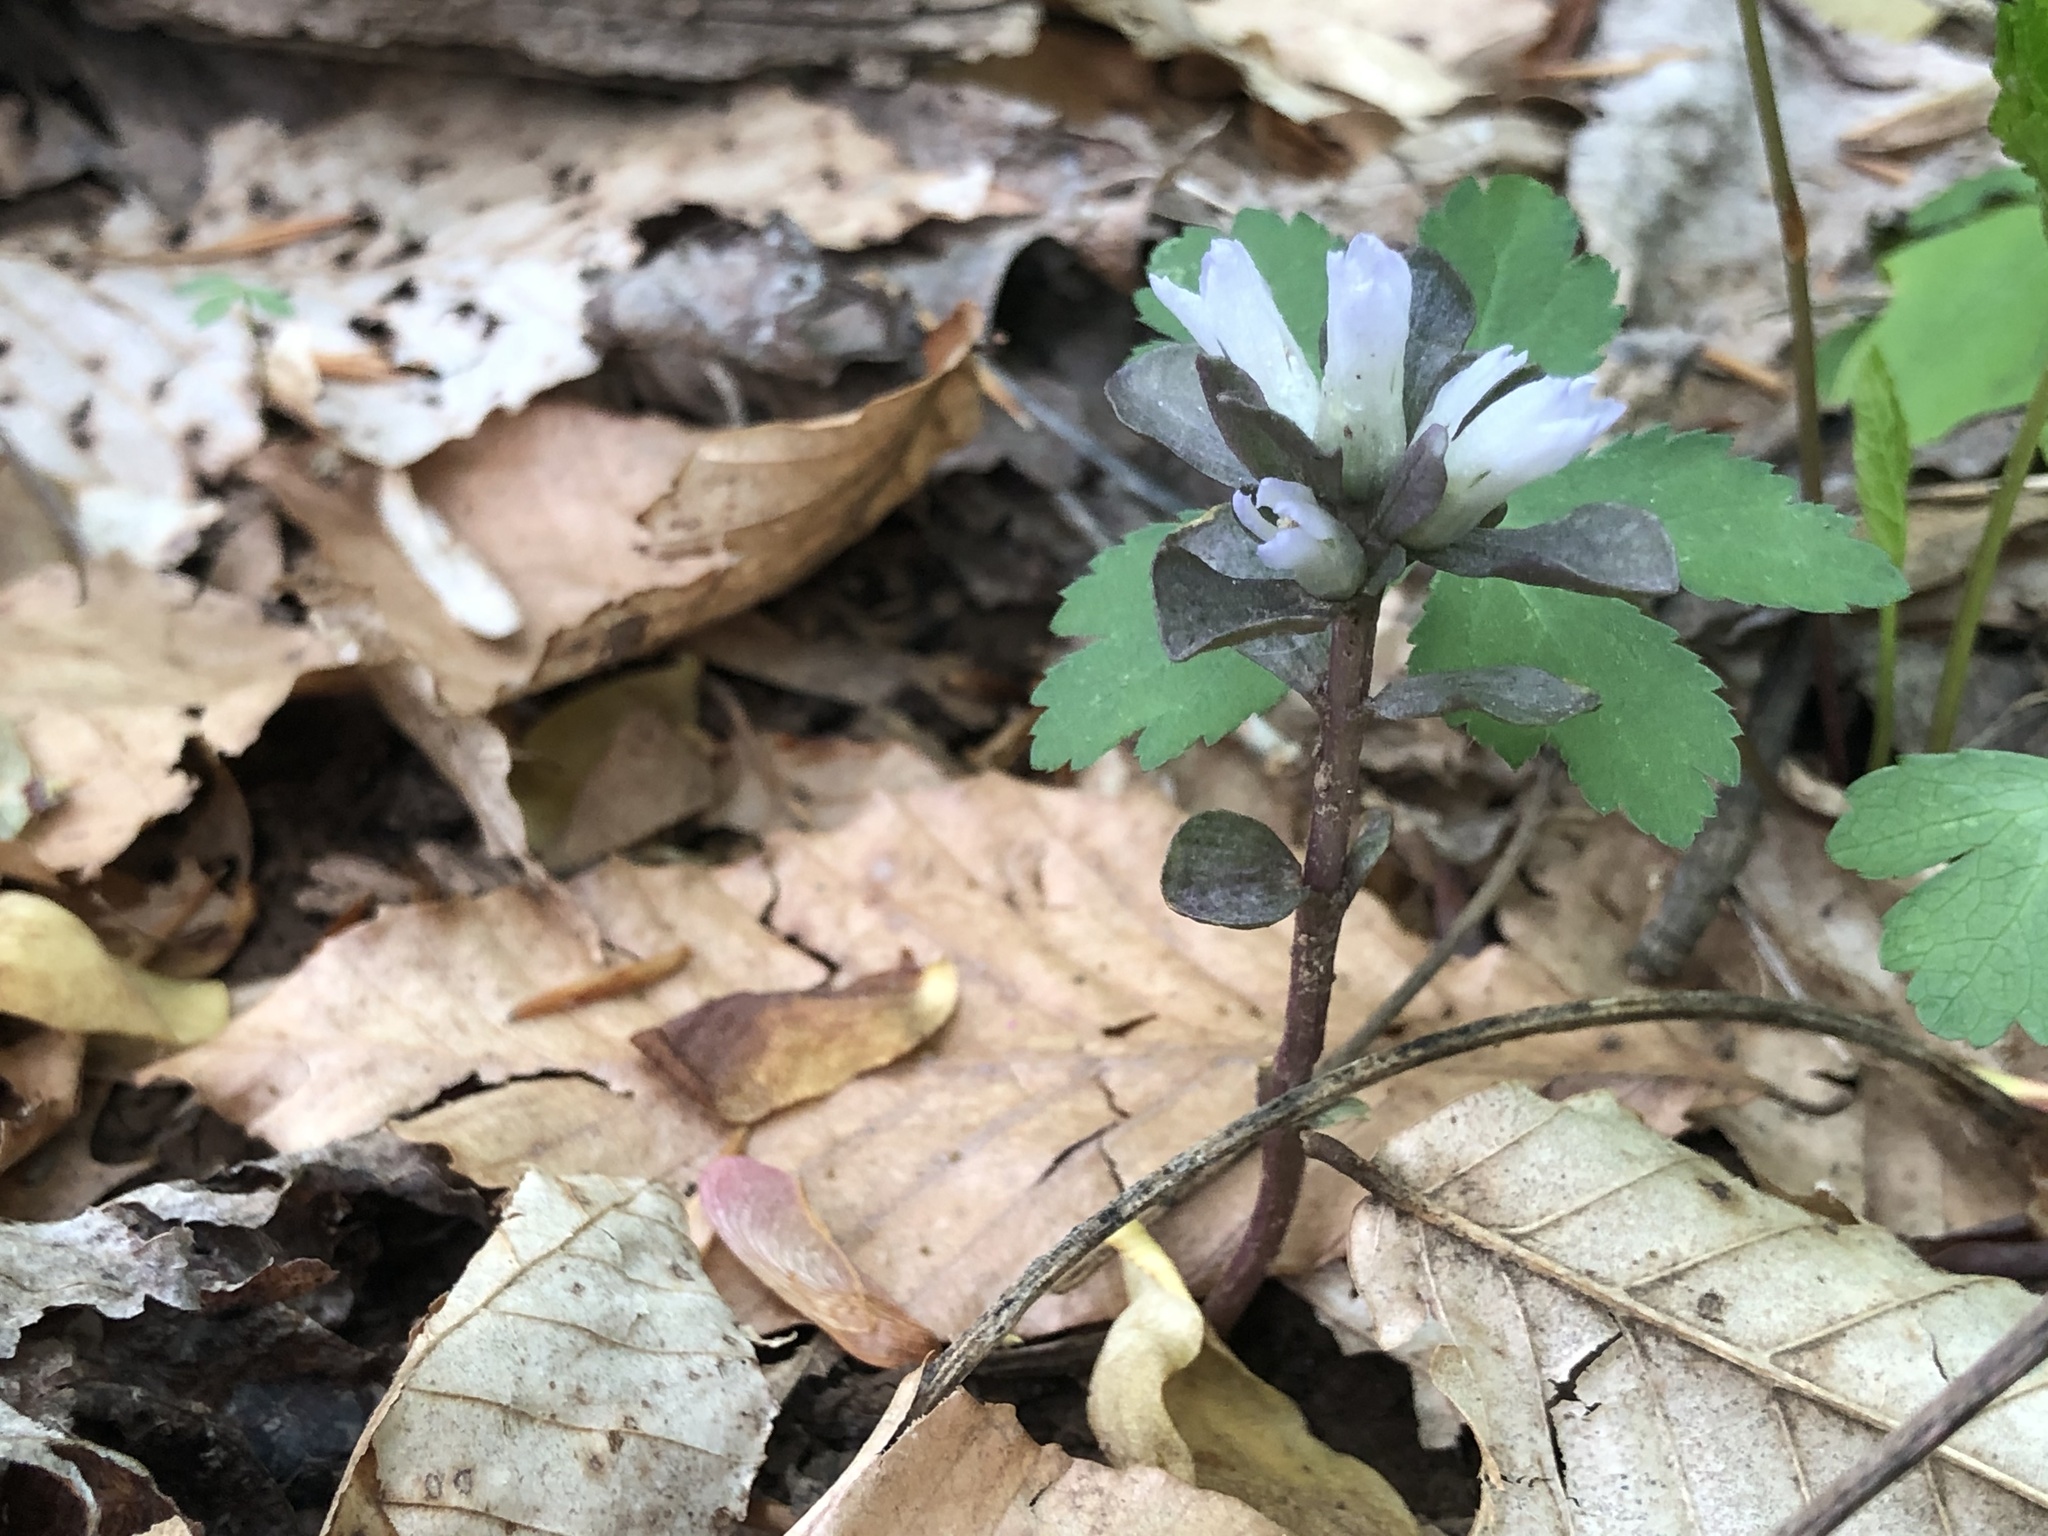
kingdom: Plantae
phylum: Tracheophyta
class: Magnoliopsida
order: Gentianales
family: Gentianaceae
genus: Obolaria
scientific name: Obolaria virginica
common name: Pennywort
